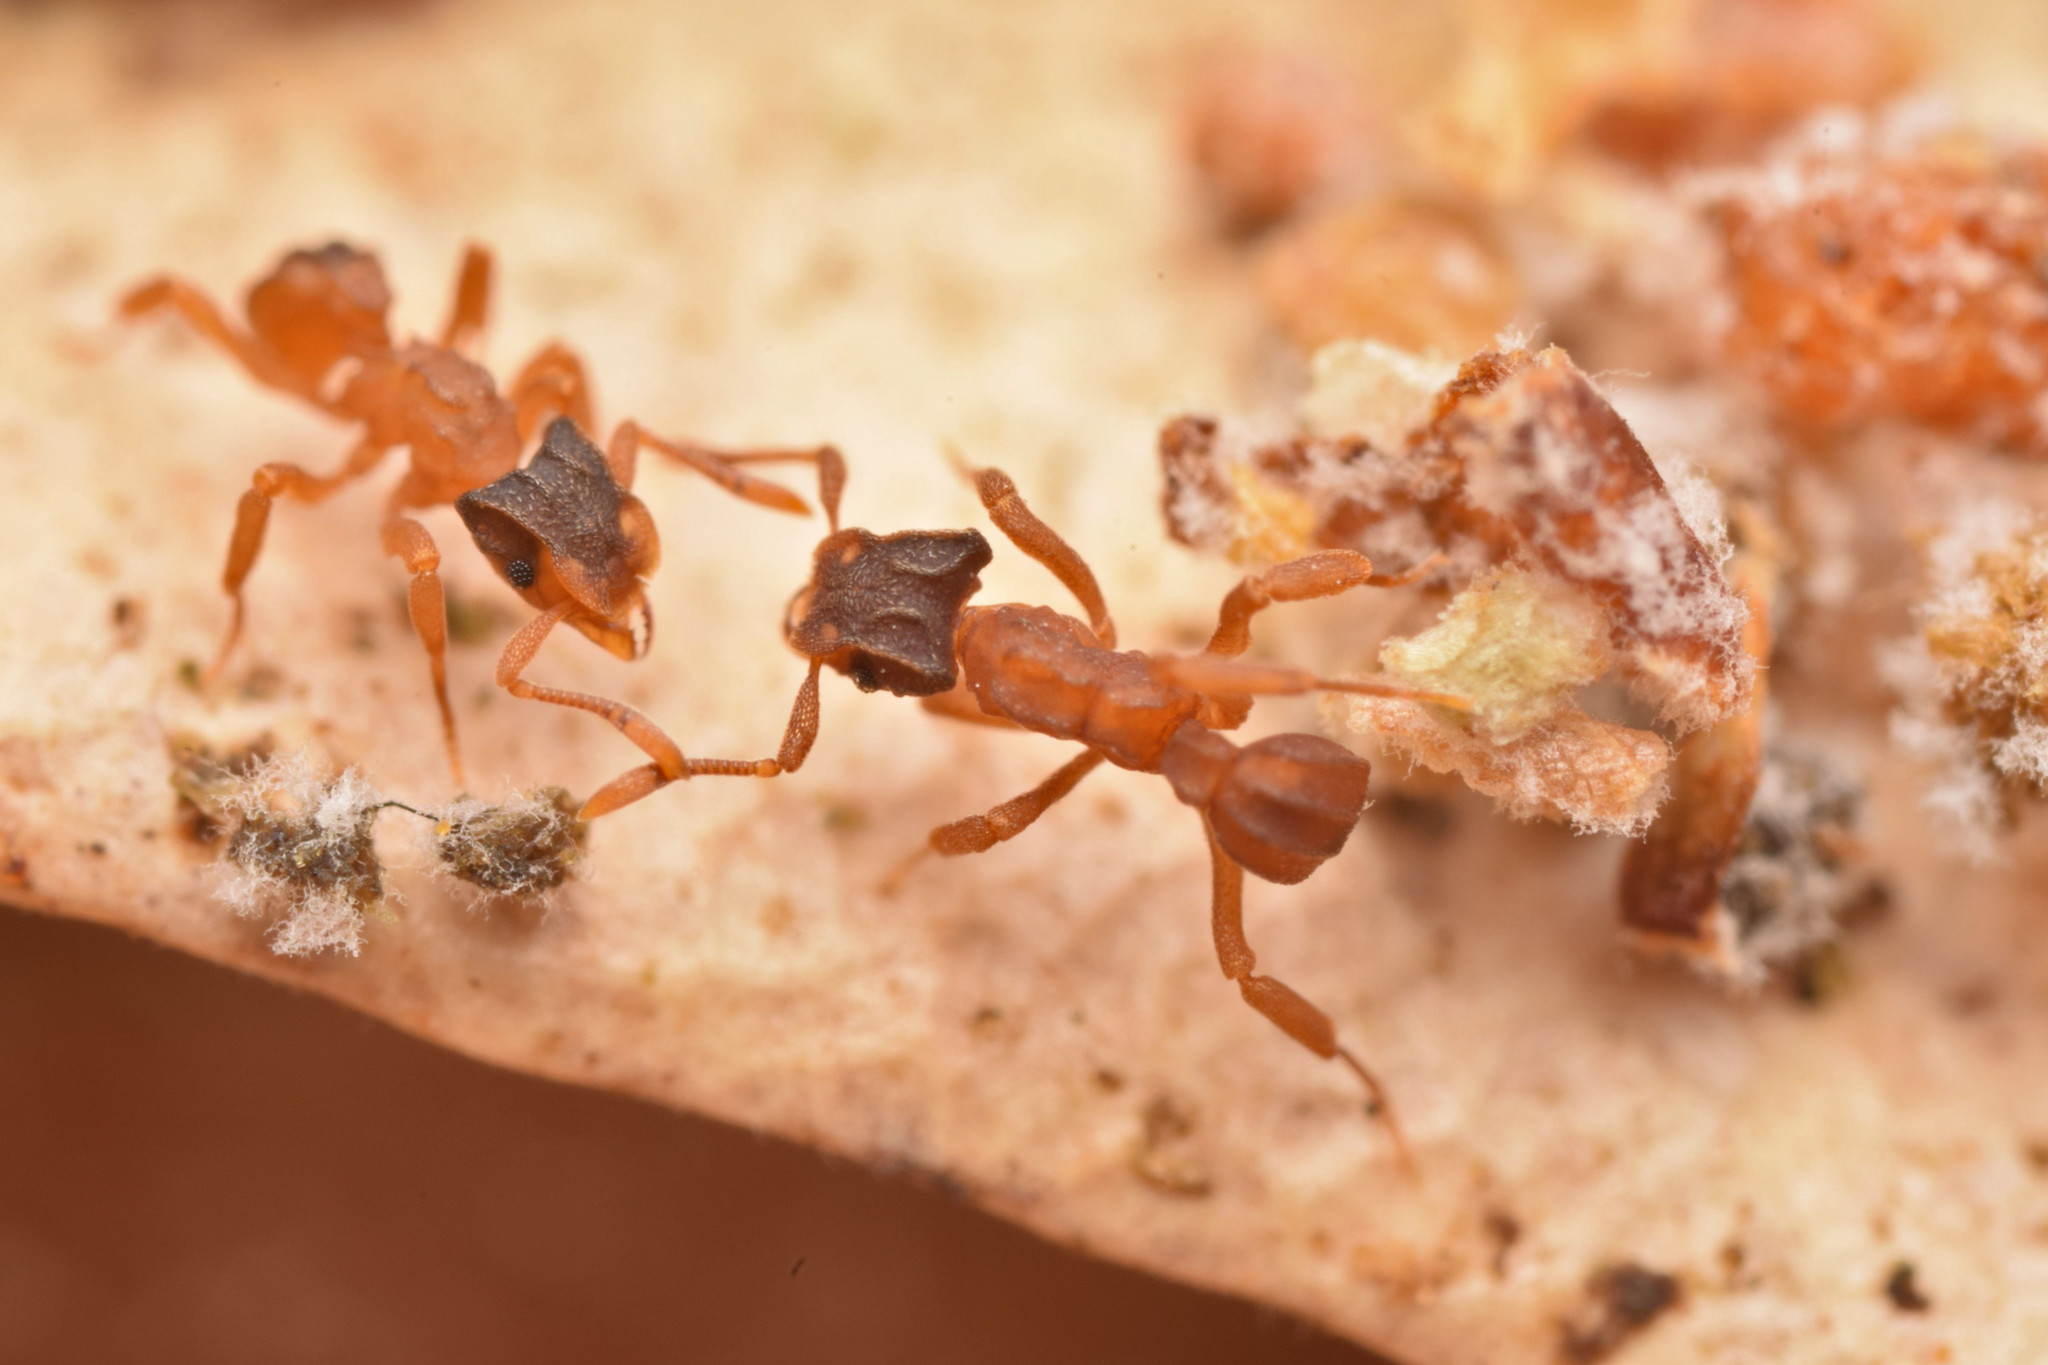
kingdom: Animalia
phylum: Arthropoda
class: Insecta
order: Hymenoptera
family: Formicidae
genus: Cyphomyrmex
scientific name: Cyphomyrmex costatus
